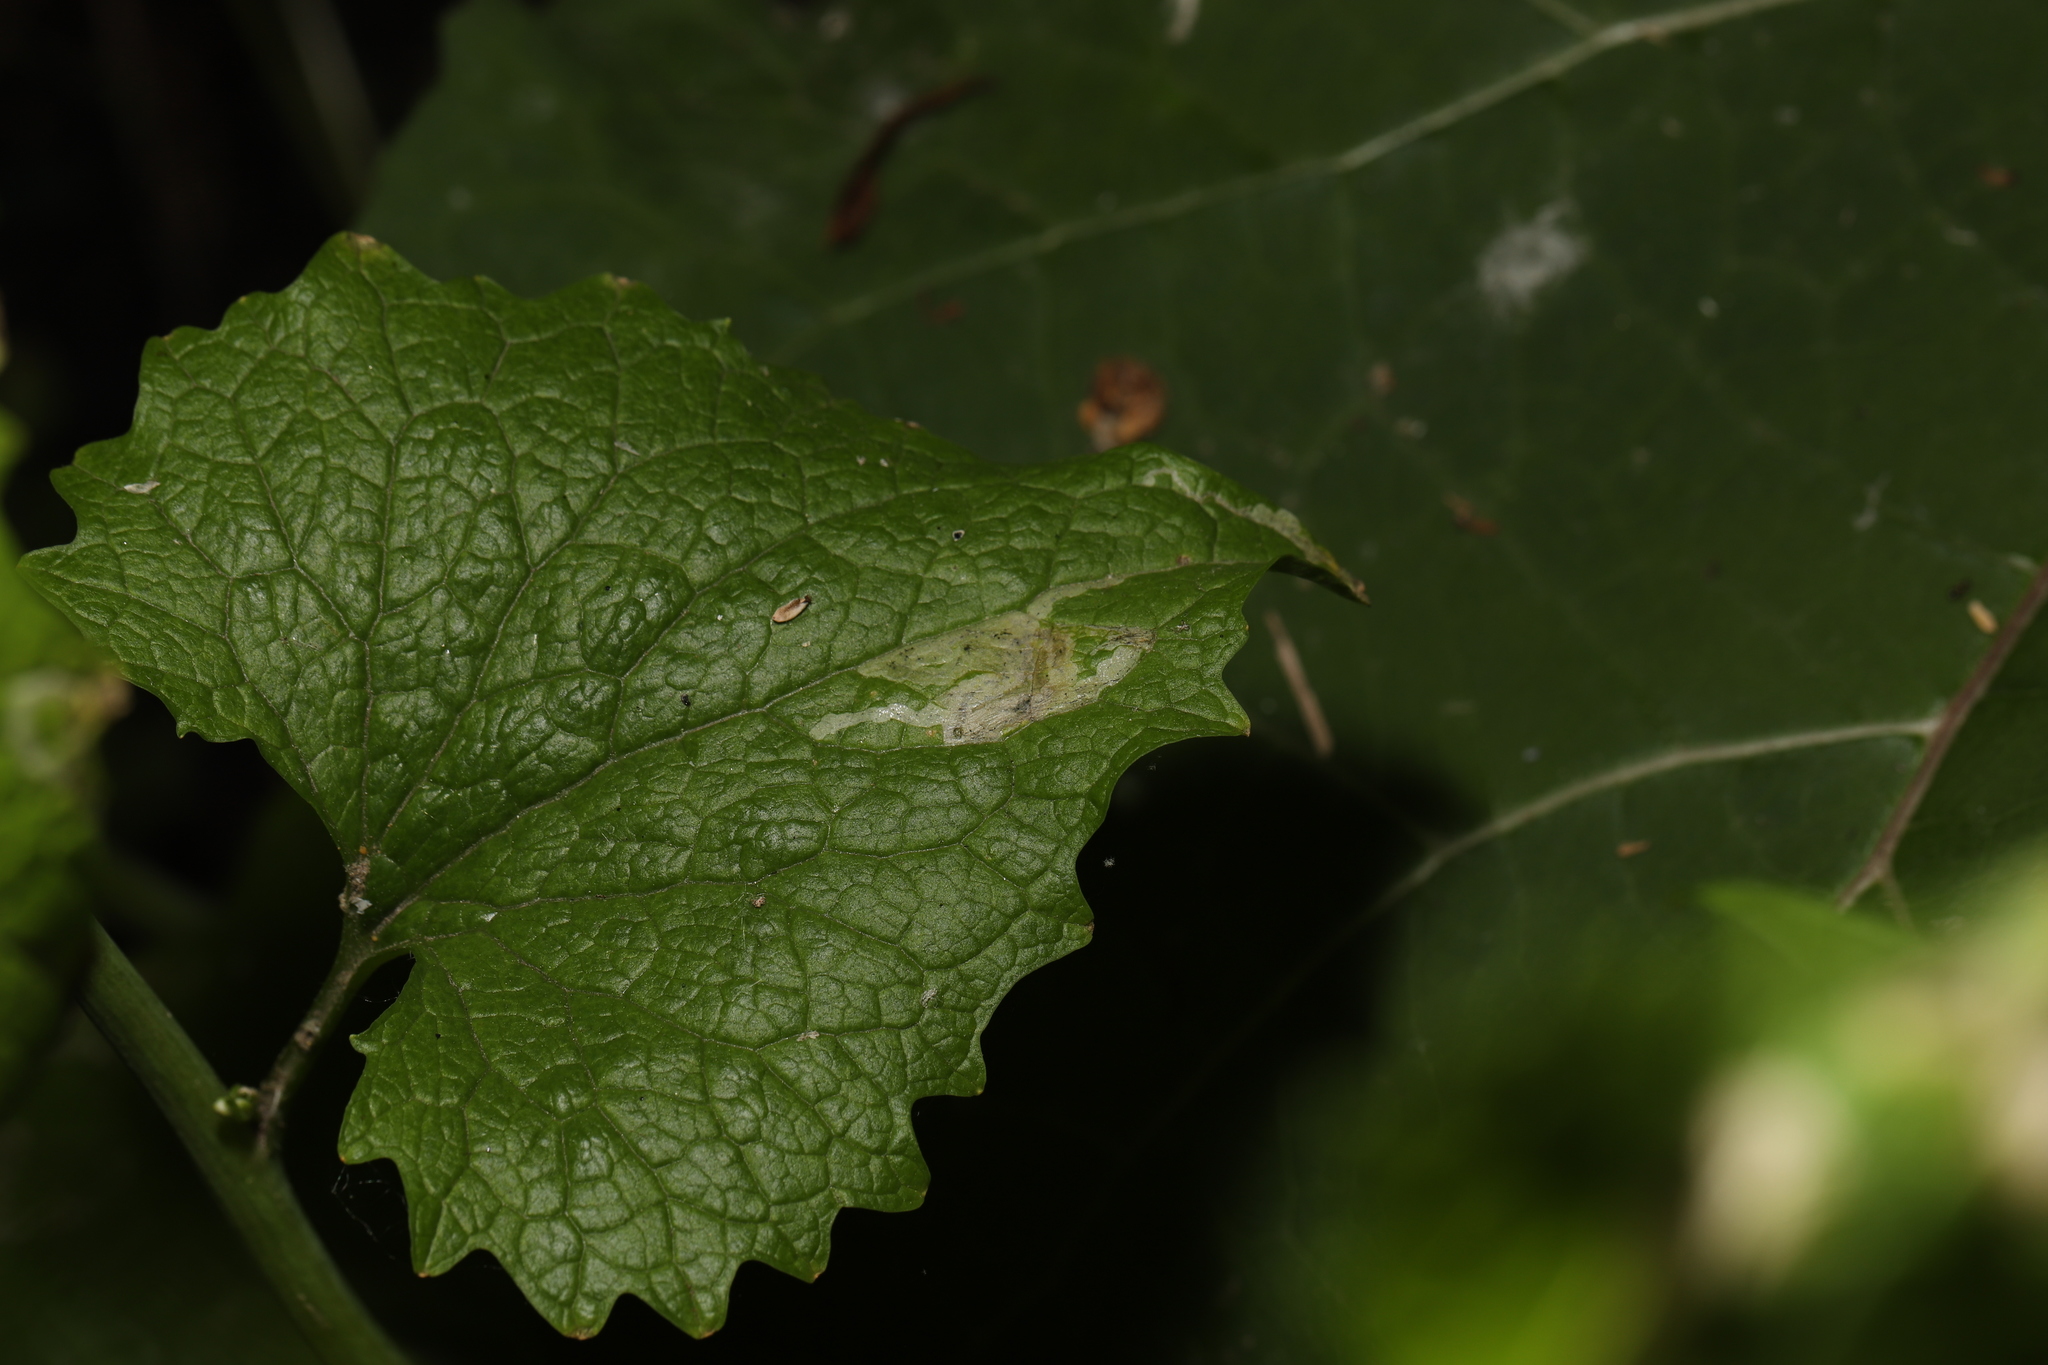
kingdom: Animalia
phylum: Arthropoda
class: Insecta
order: Diptera
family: Agromyzidae
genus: Liriomyza
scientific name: Liriomyza brassicae
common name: Serpentine leaf miner
